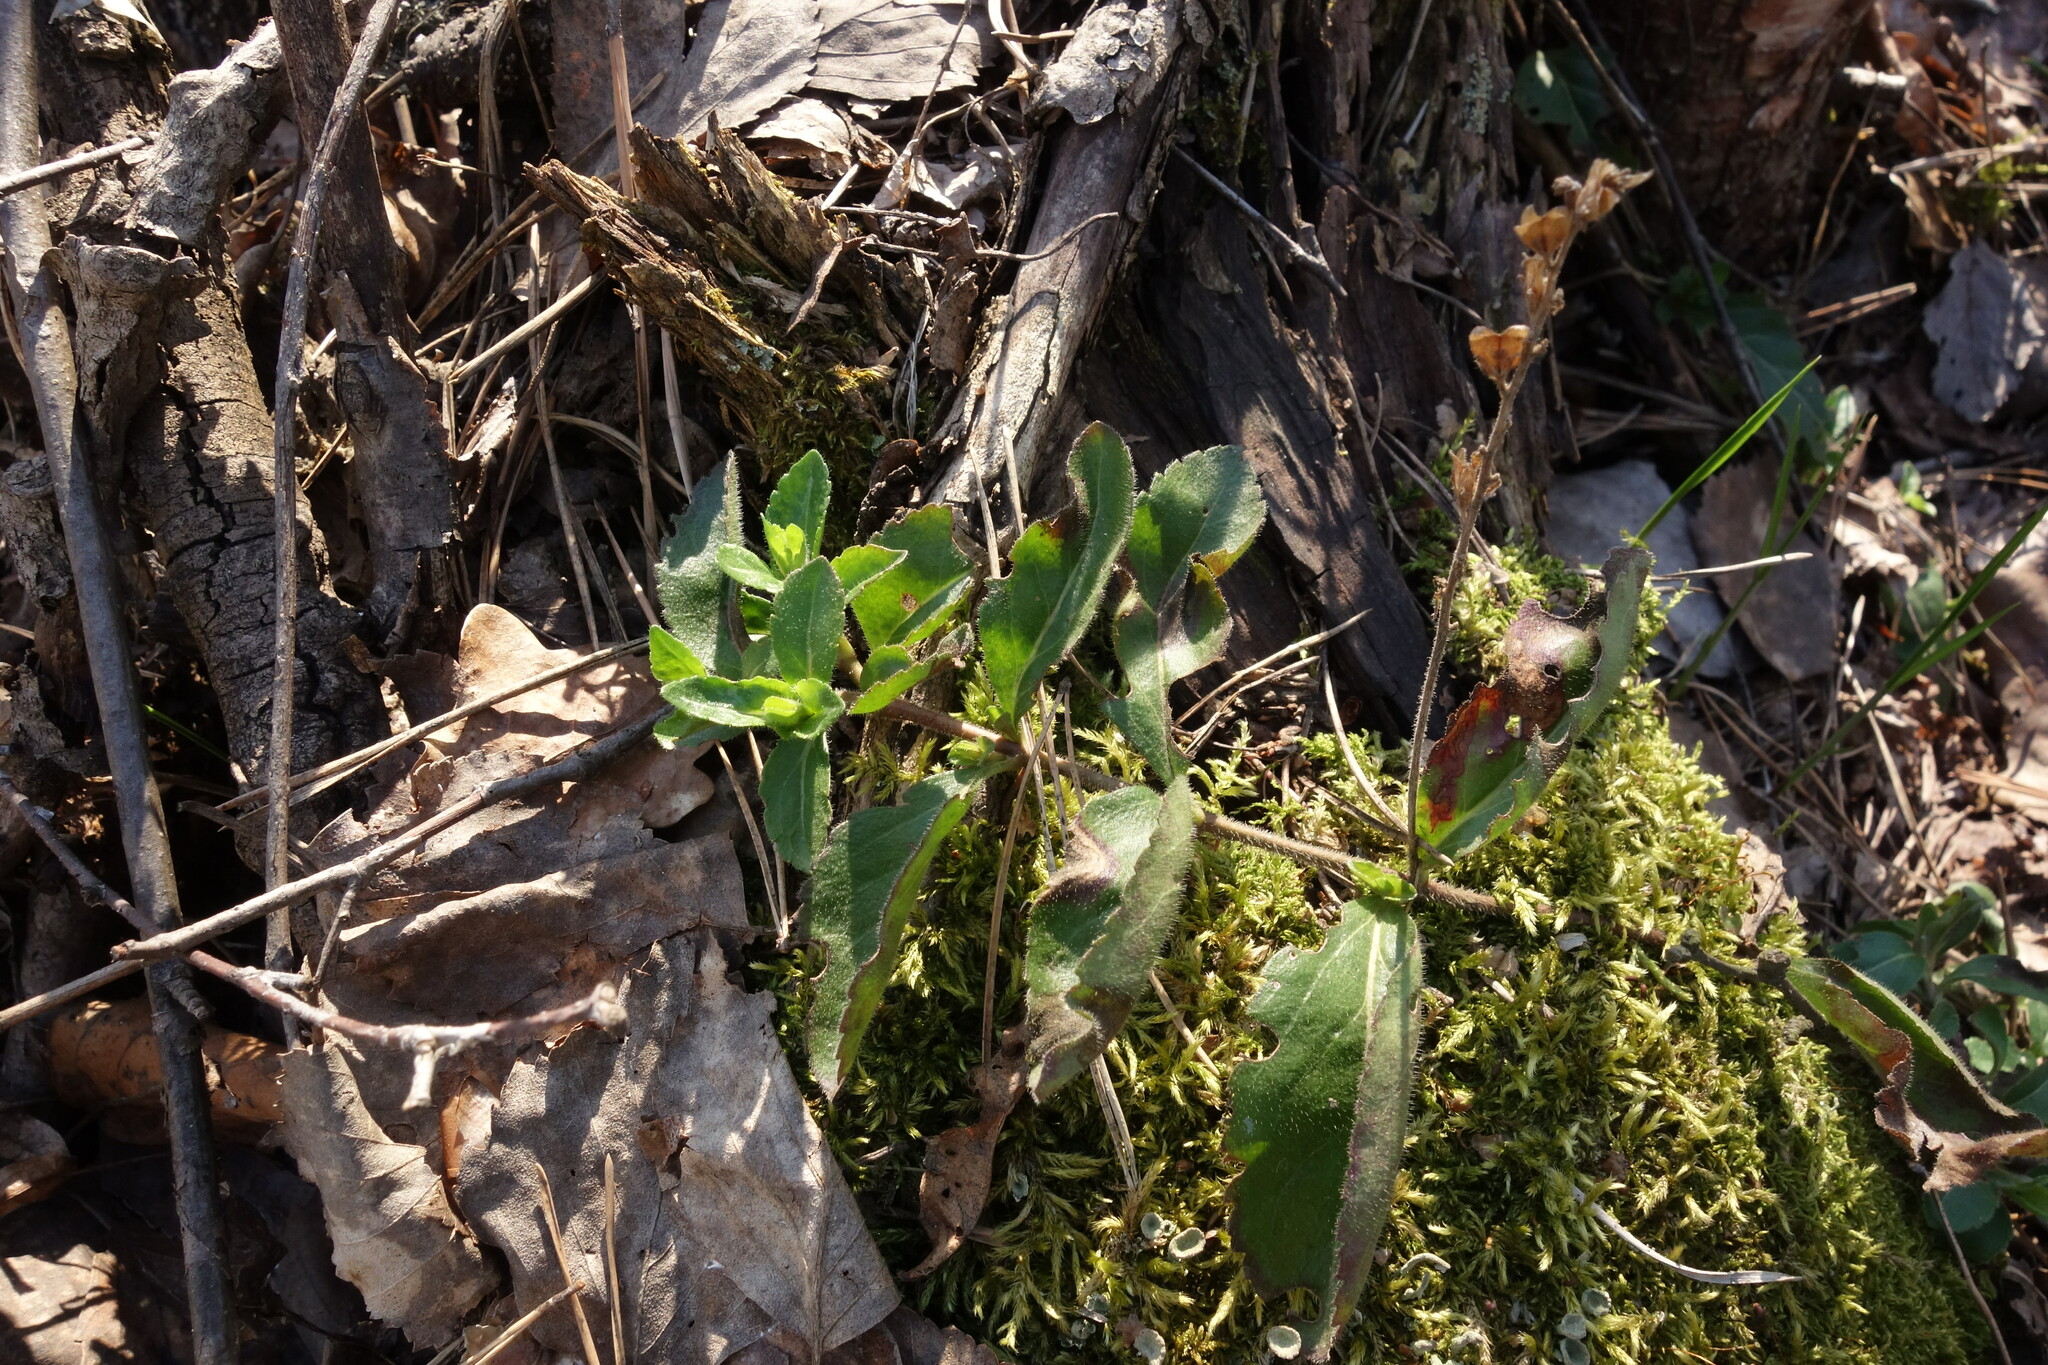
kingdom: Plantae
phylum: Tracheophyta
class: Magnoliopsida
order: Lamiales
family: Plantaginaceae
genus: Veronica
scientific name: Veronica officinalis
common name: Common speedwell
